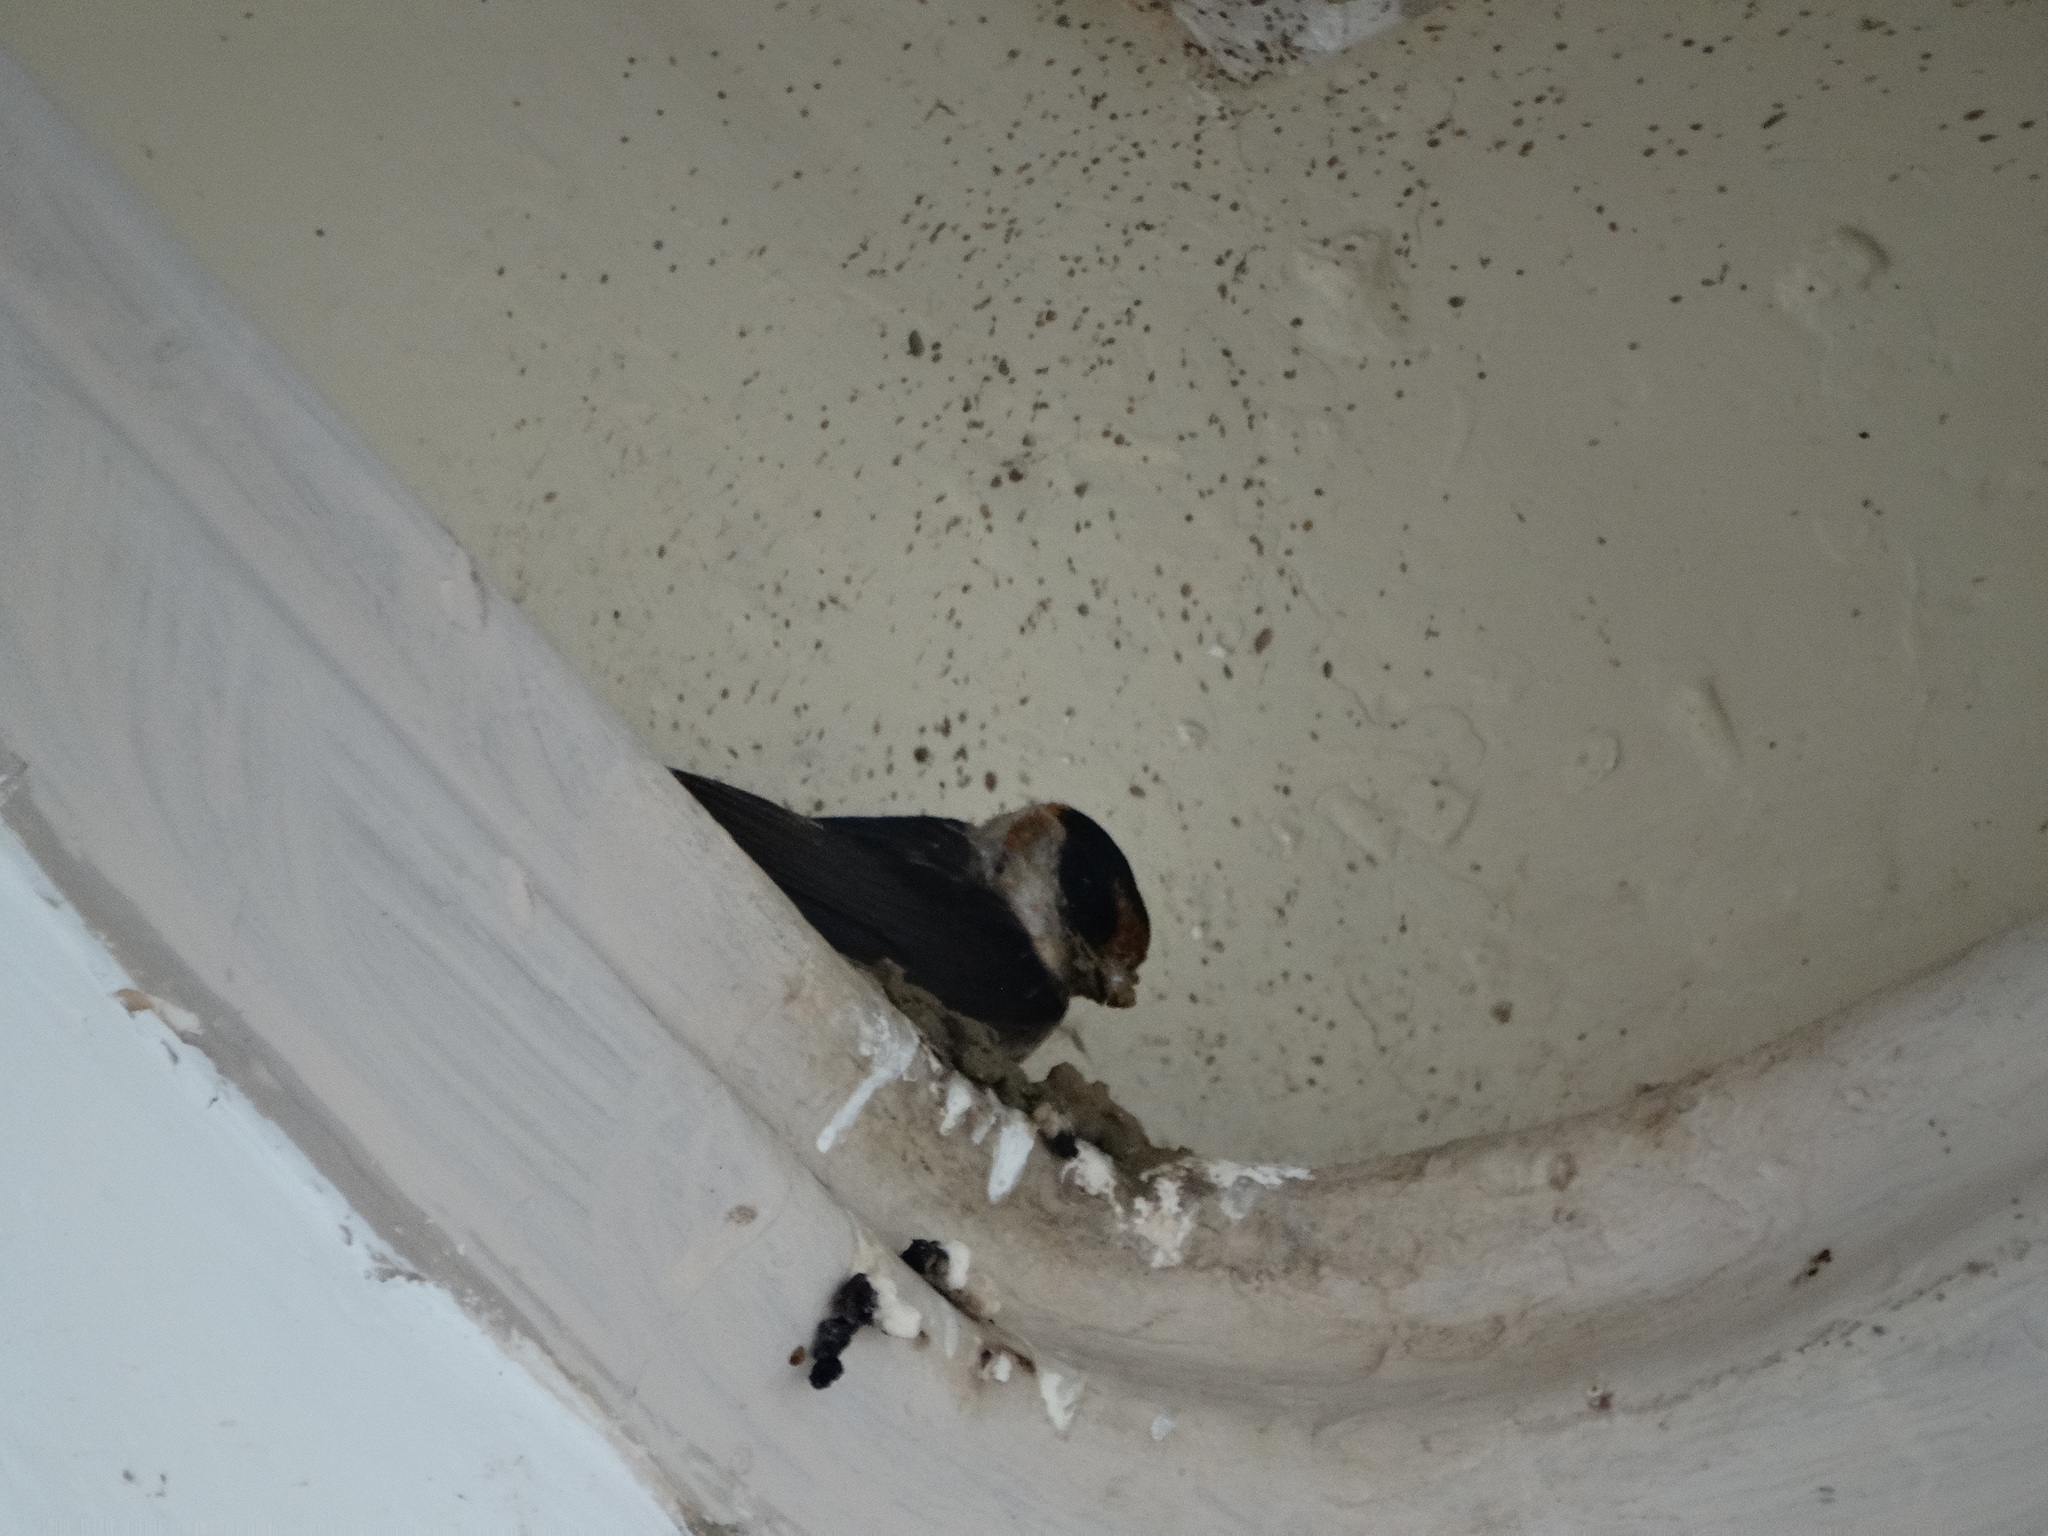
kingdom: Animalia
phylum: Chordata
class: Aves
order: Passeriformes
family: Hirundinidae
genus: Petrochelidon
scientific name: Petrochelidon fulva
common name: Cave swallow
